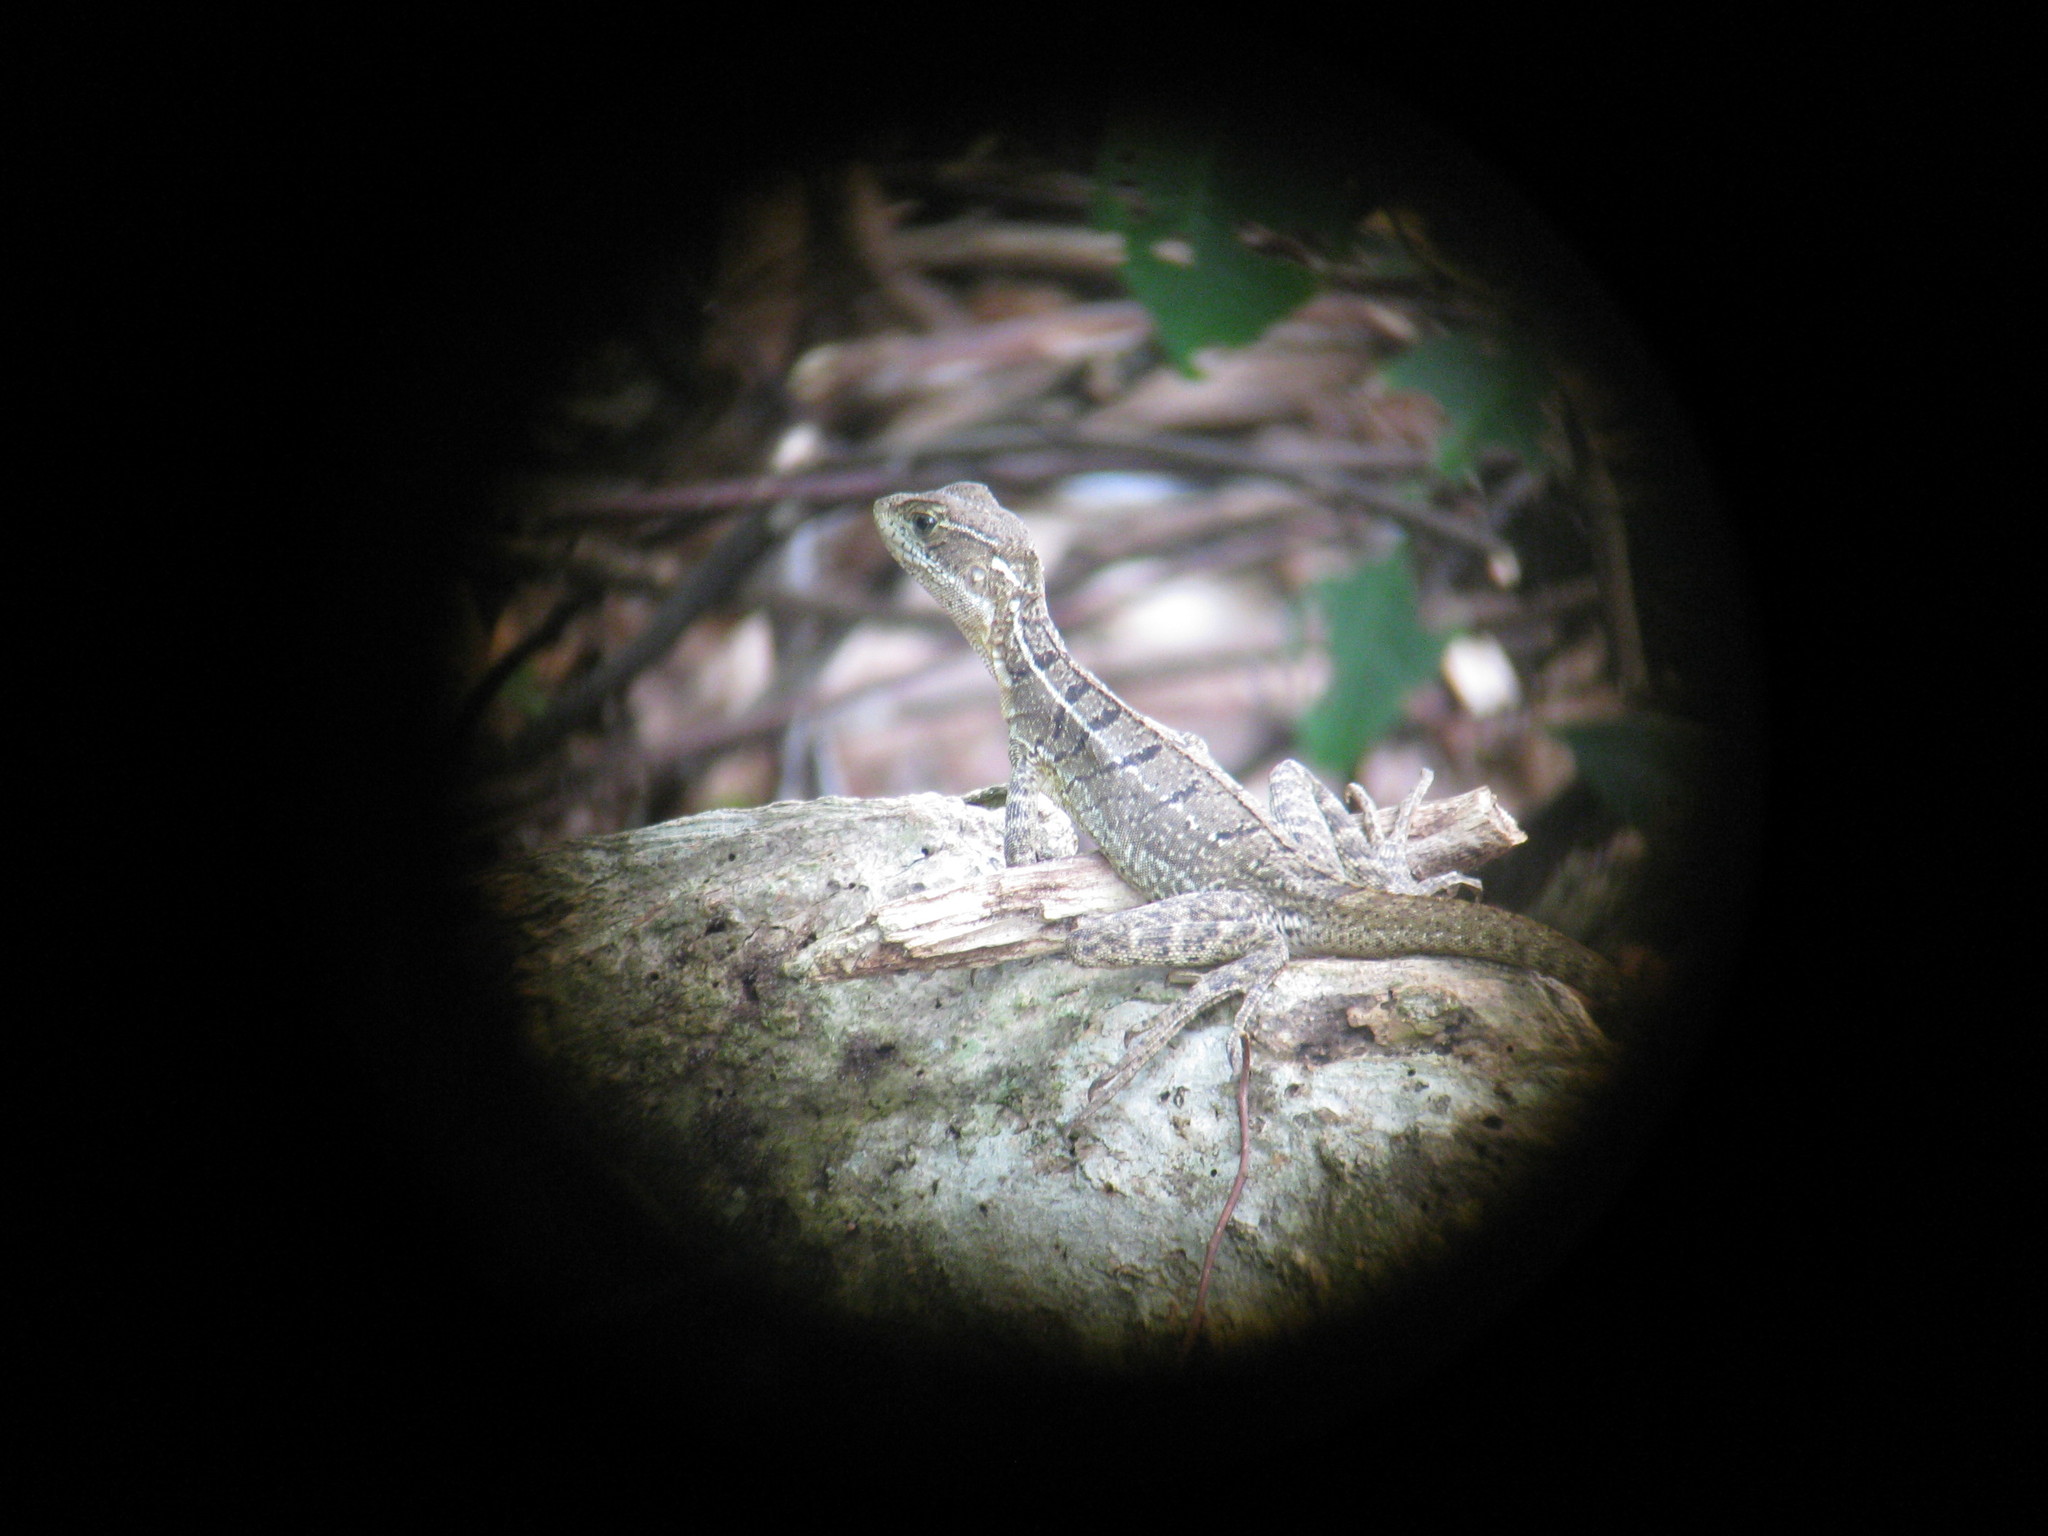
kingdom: Animalia
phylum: Chordata
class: Squamata
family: Corytophanidae
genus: Basiliscus
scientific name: Basiliscus basiliscus
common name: Common basilisk
